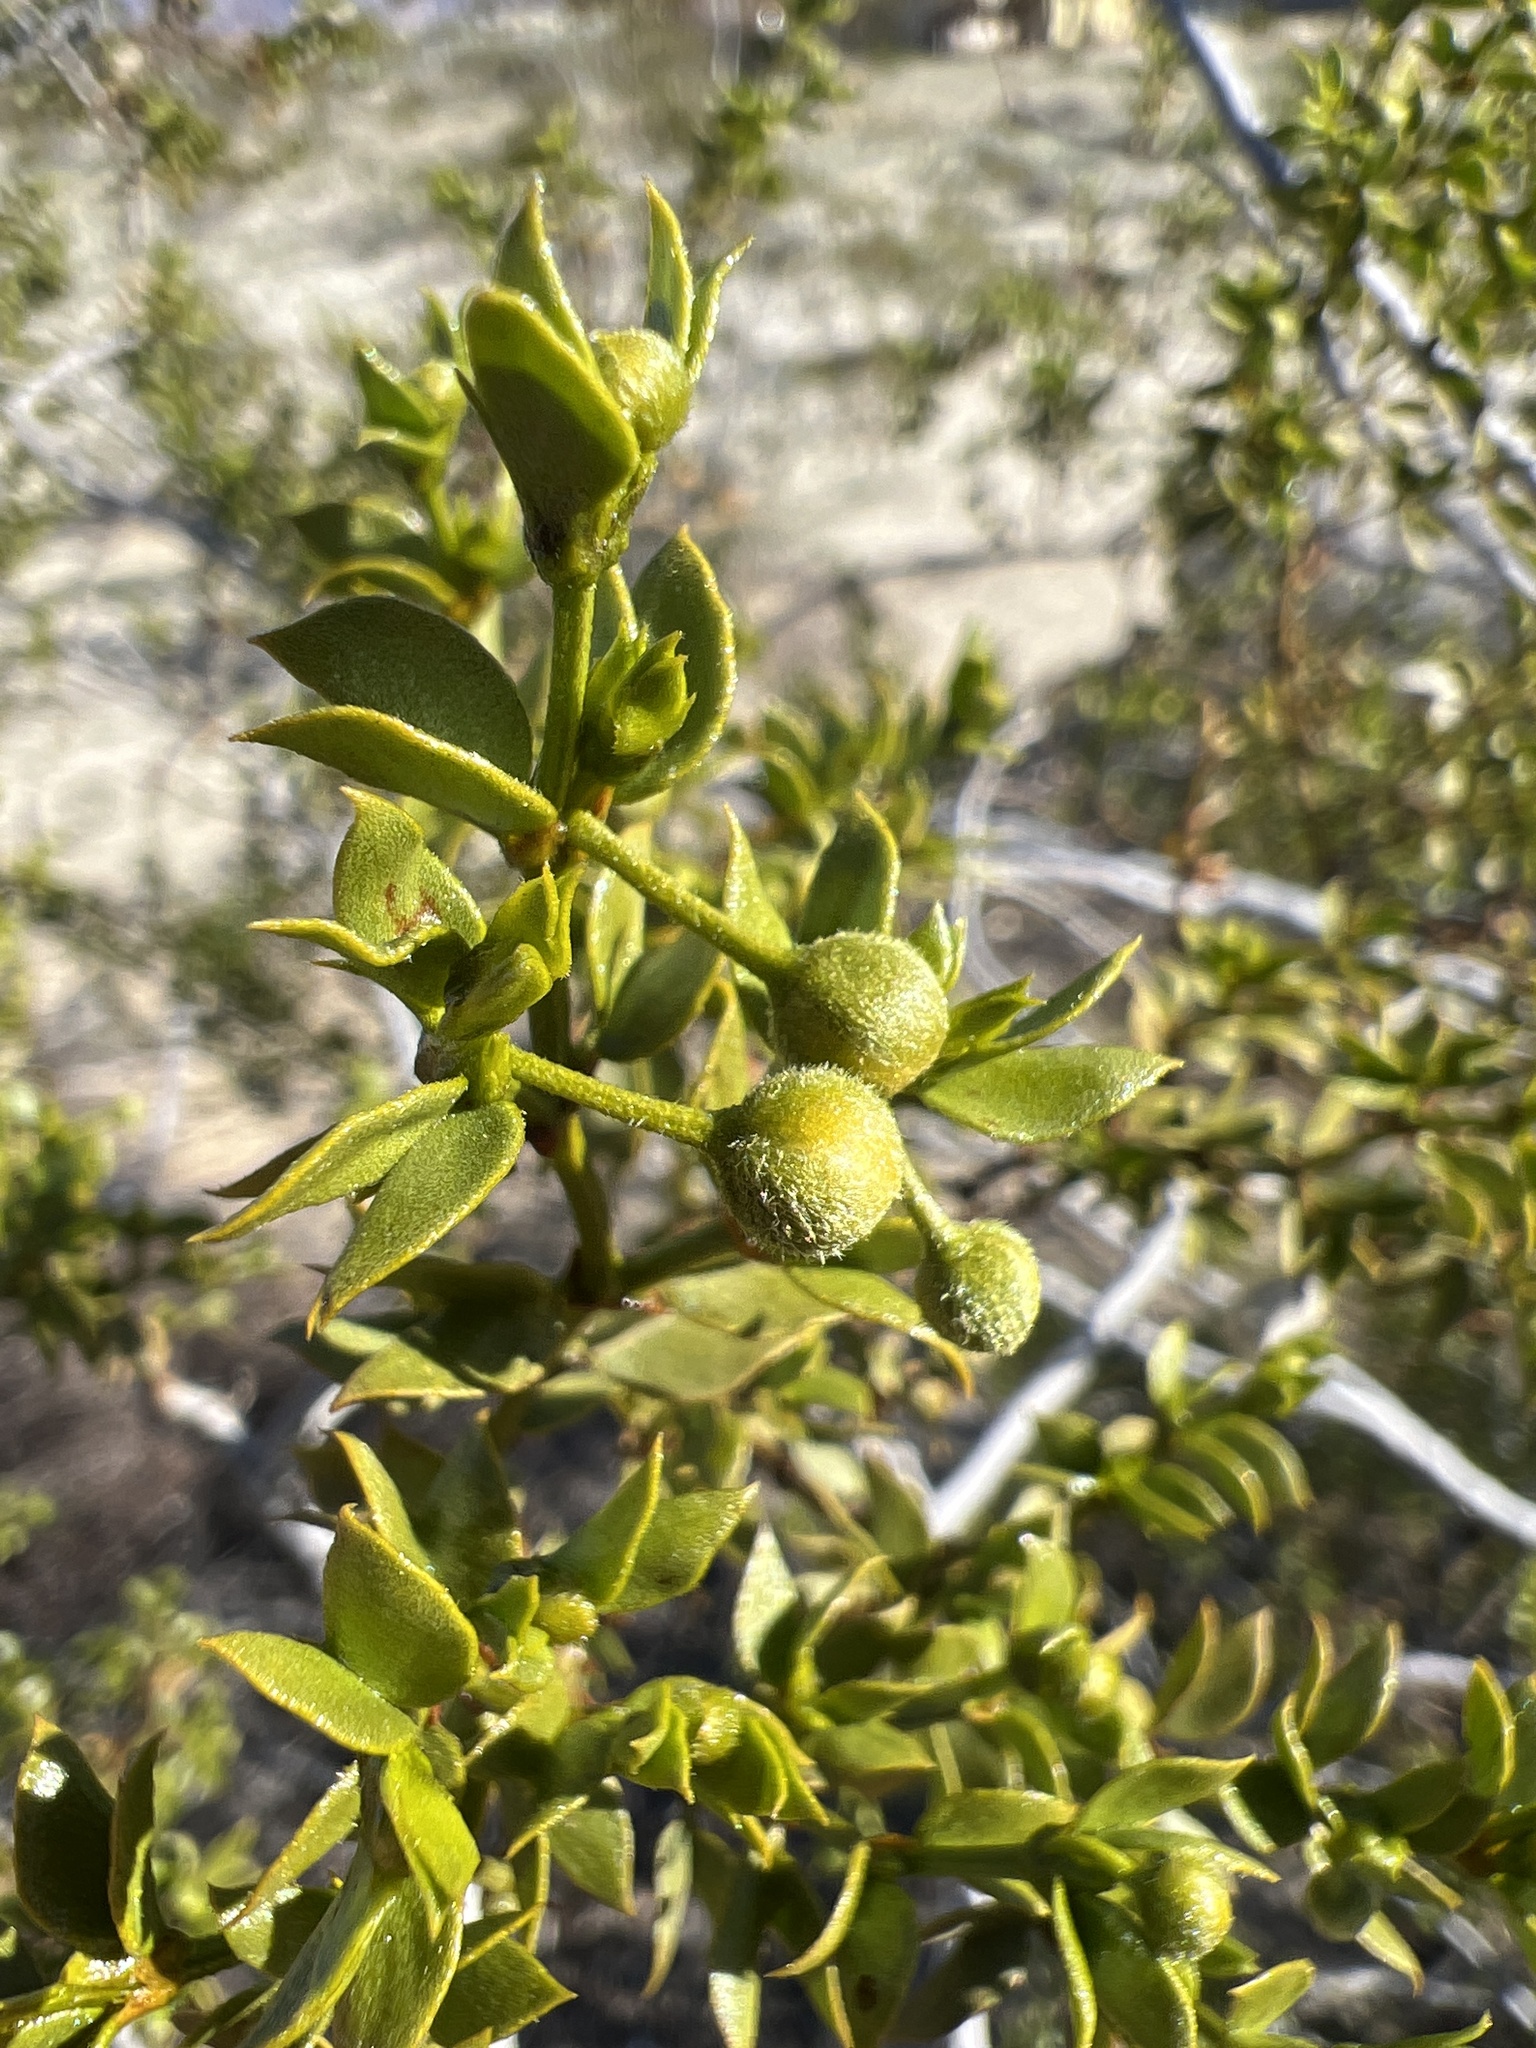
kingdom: Plantae
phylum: Tracheophyta
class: Magnoliopsida
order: Zygophyllales
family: Zygophyllaceae
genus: Larrea
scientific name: Larrea tridentata
